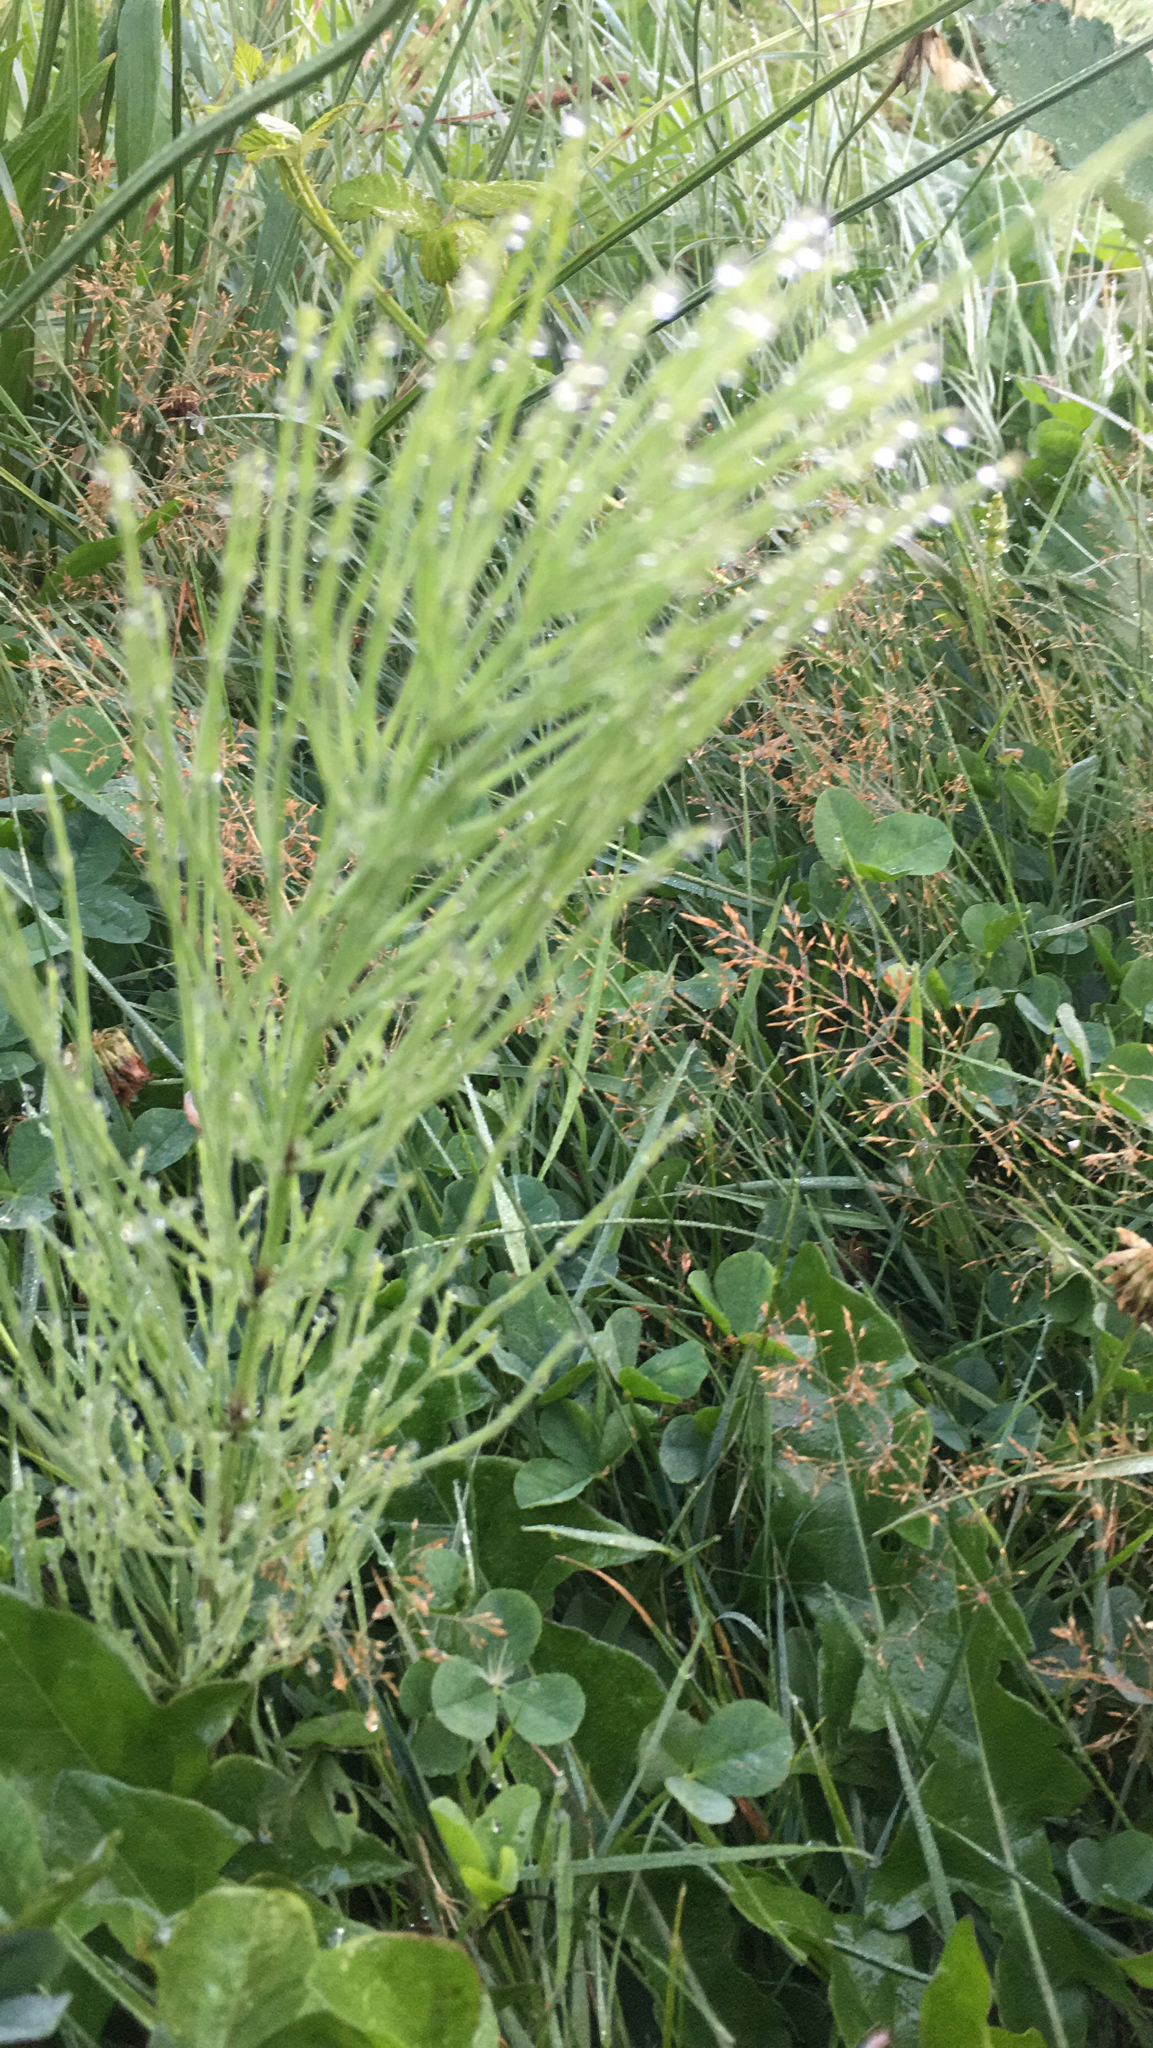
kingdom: Plantae
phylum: Tracheophyta
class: Polypodiopsida
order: Equisetales
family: Equisetaceae
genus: Equisetum
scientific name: Equisetum arvense
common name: Field horsetail
